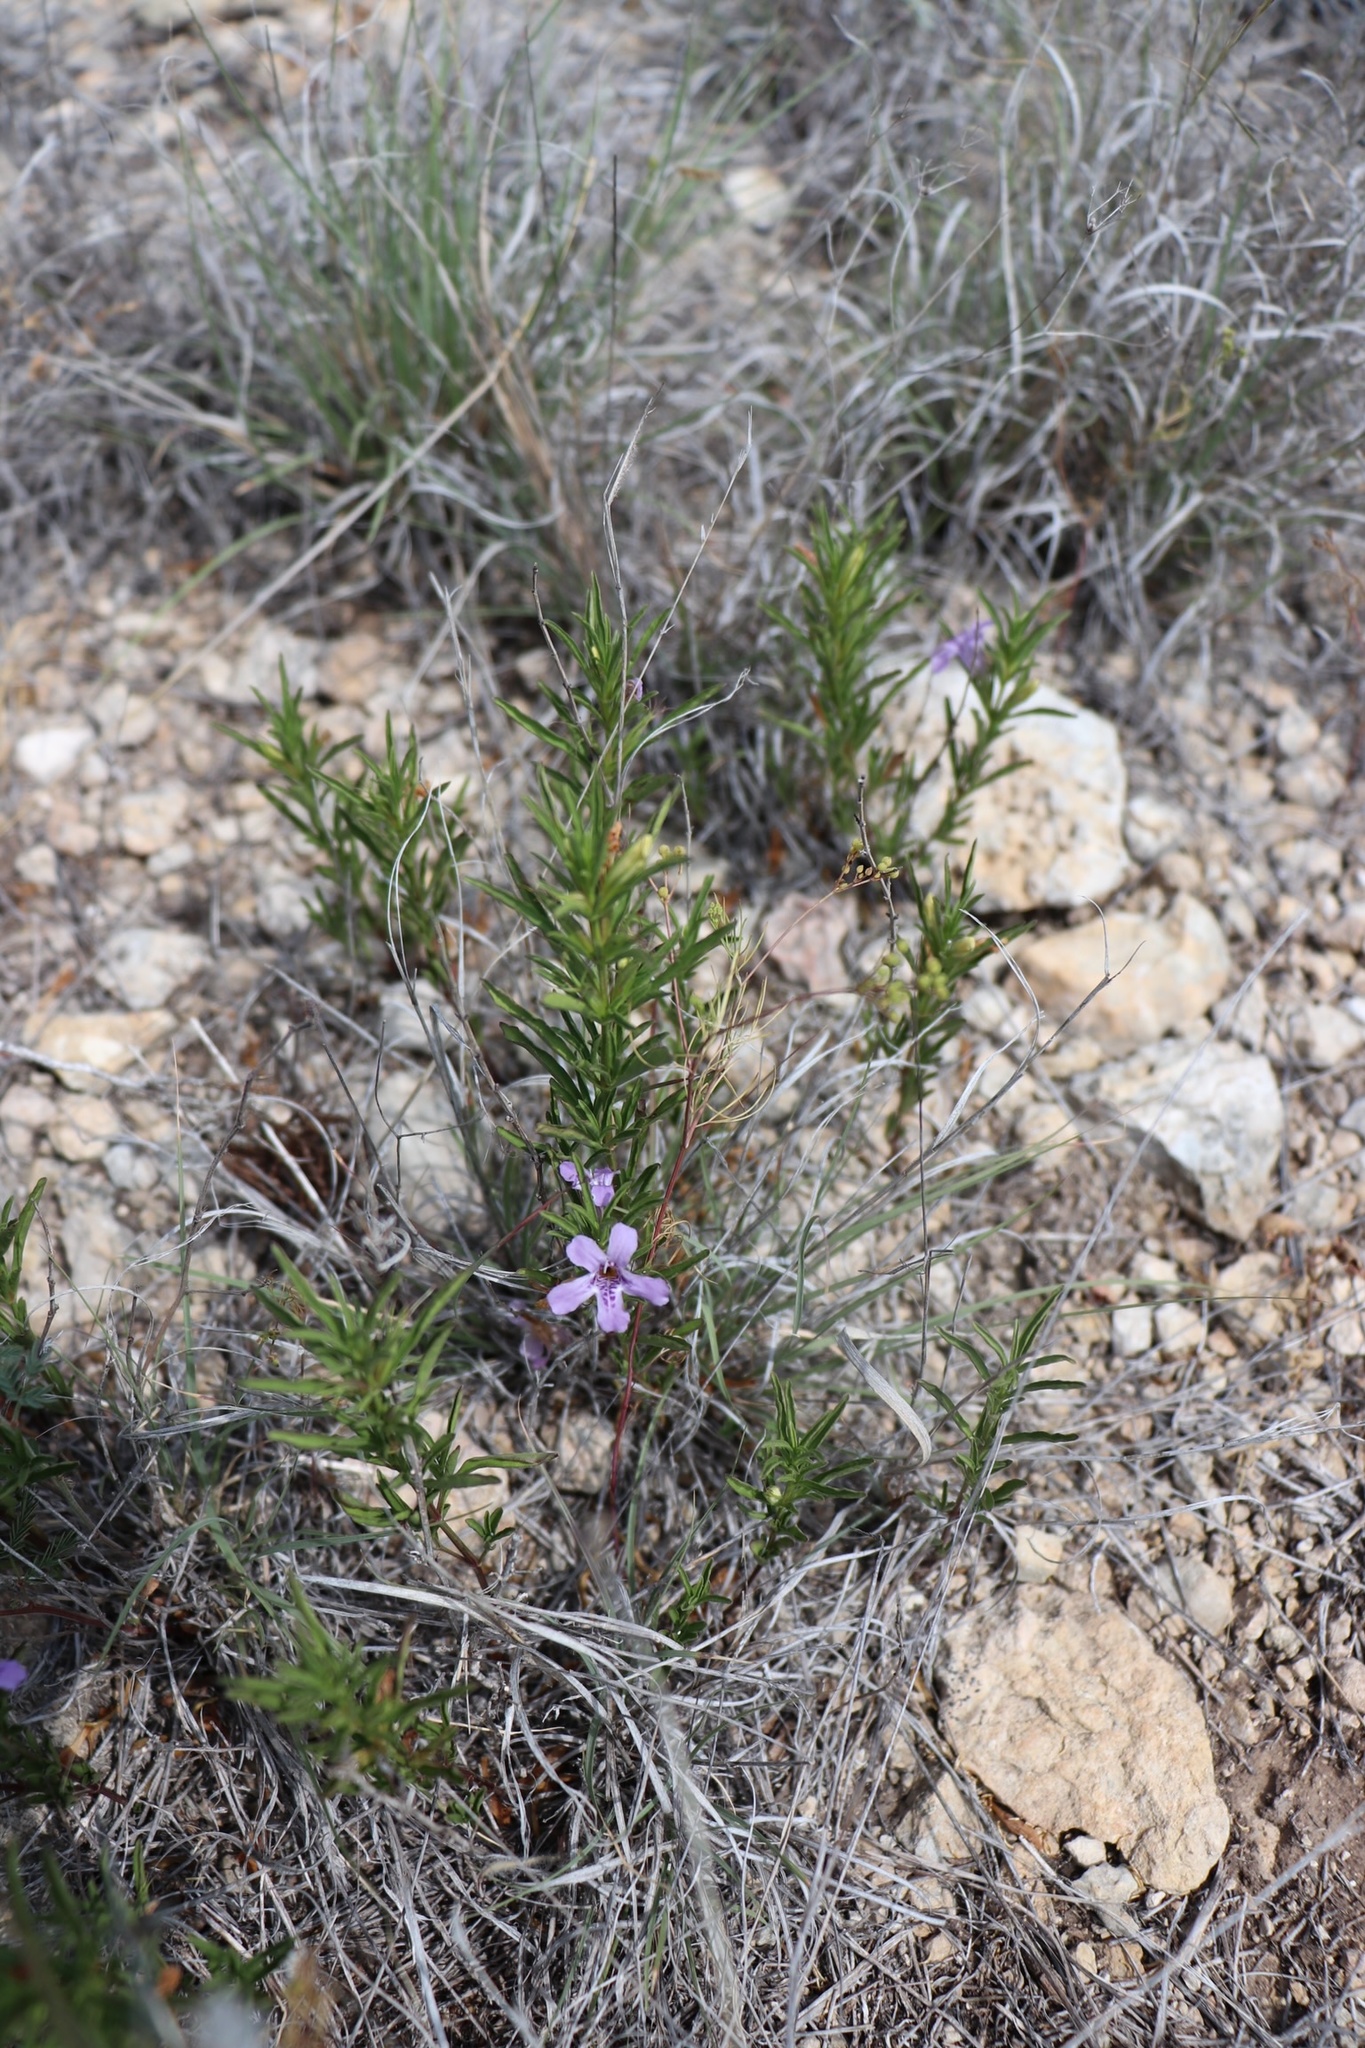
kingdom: Plantae
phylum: Tracheophyta
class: Magnoliopsida
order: Lamiales
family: Acanthaceae
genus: Dyschoriste
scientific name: Dyschoriste linearis
